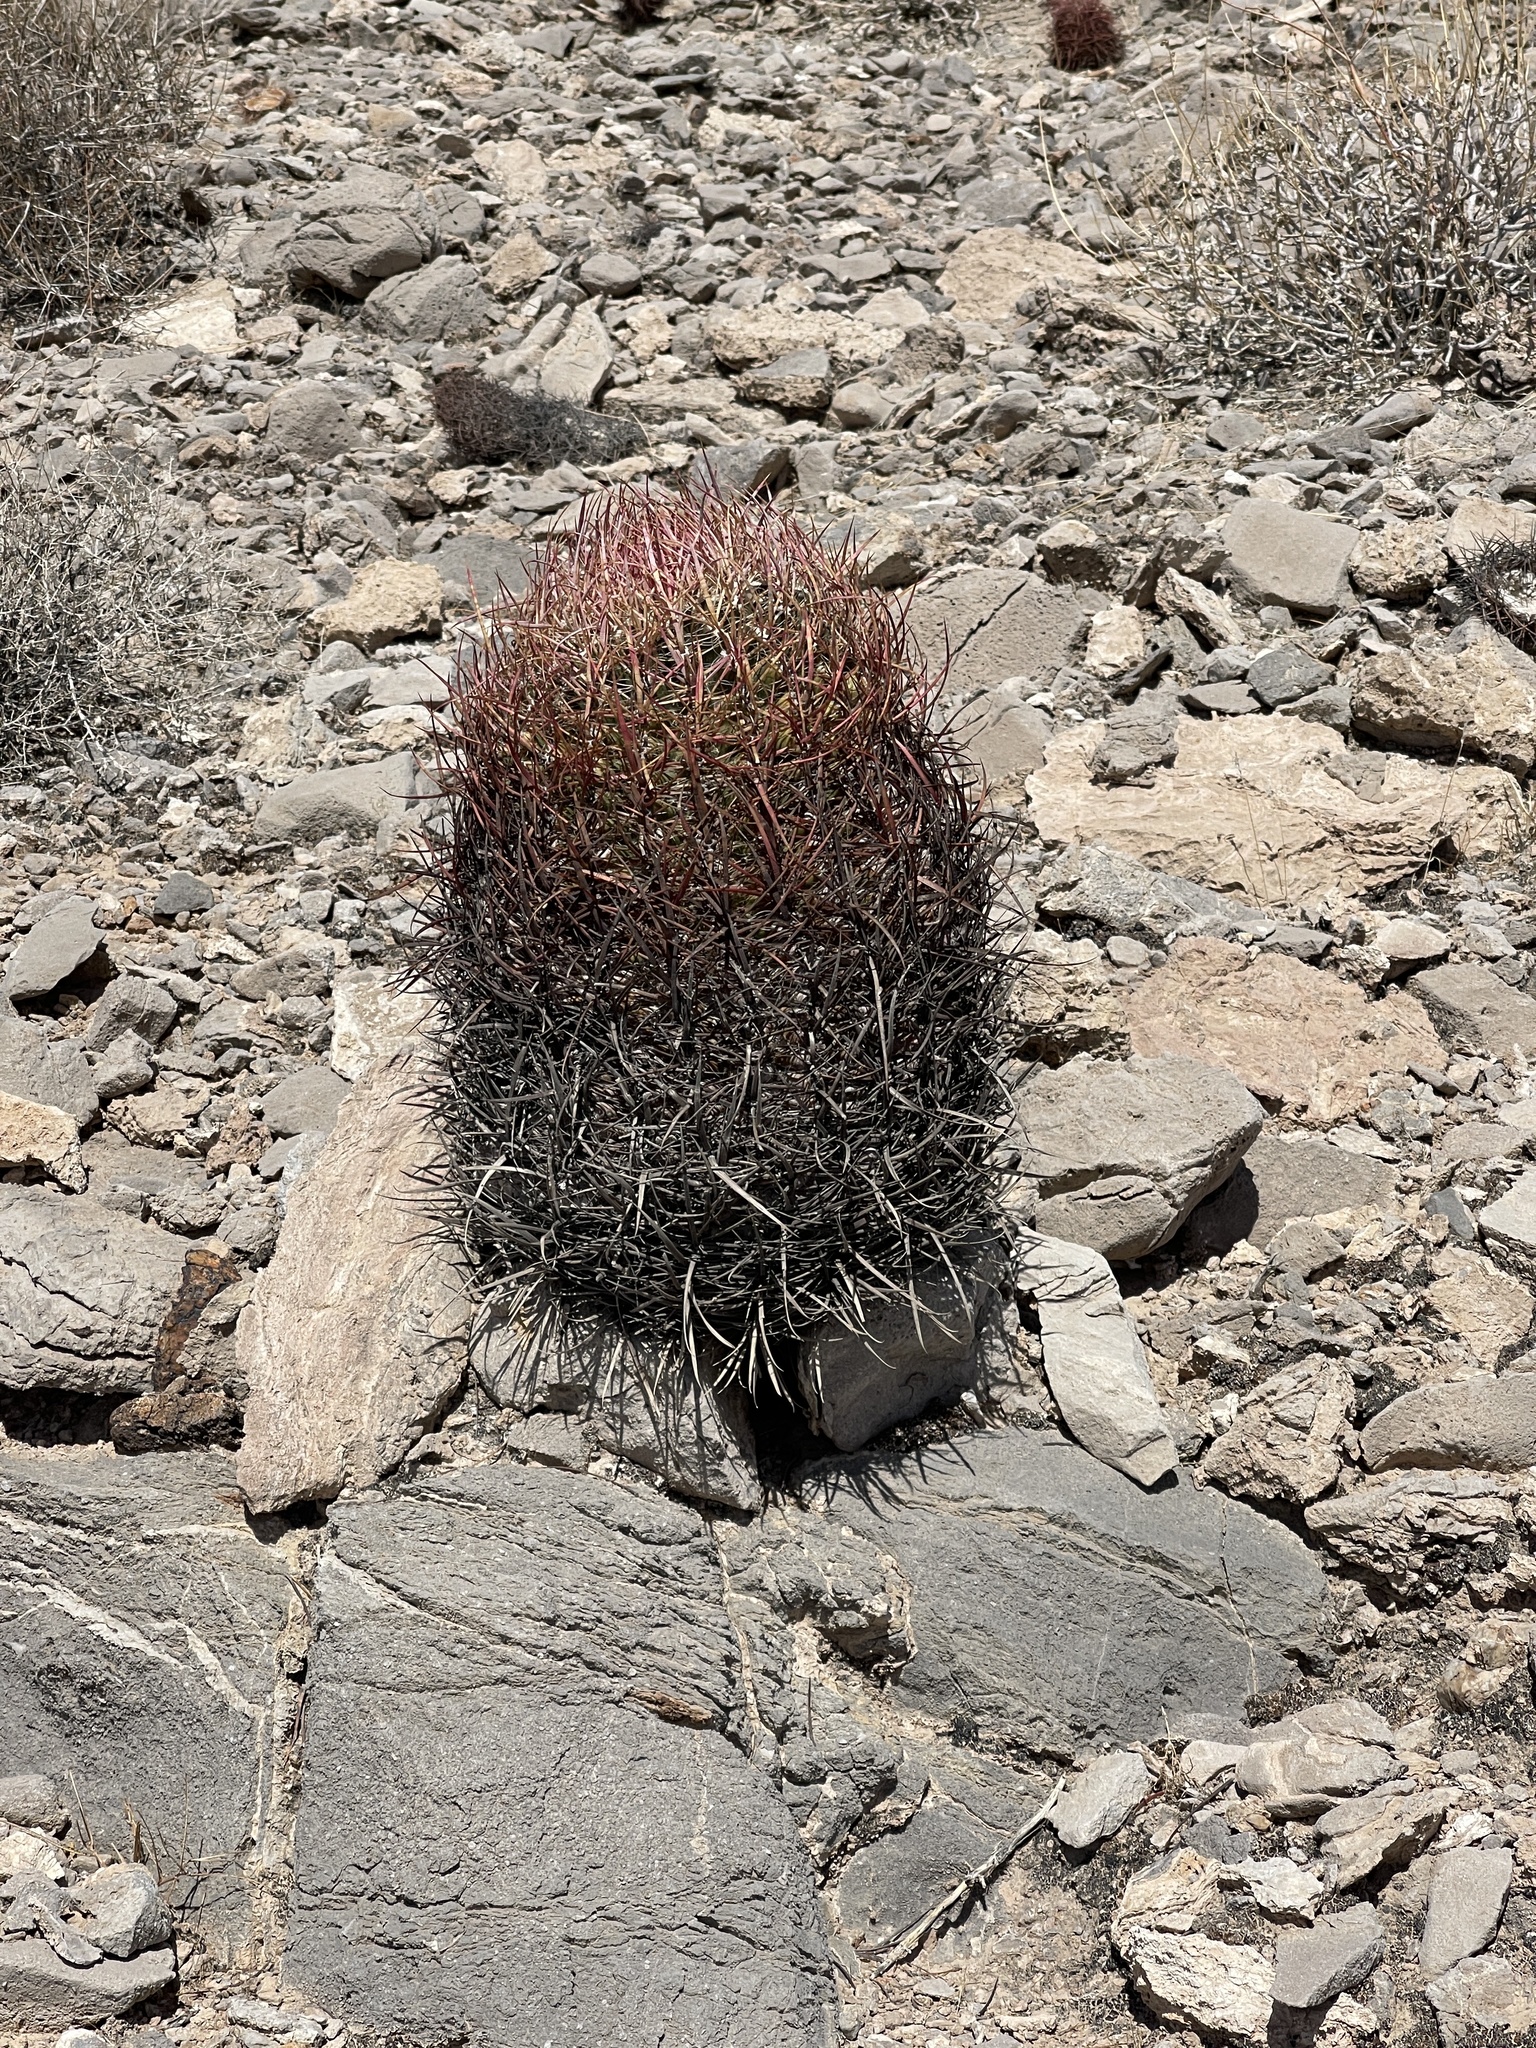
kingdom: Plantae
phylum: Tracheophyta
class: Magnoliopsida
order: Caryophyllales
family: Cactaceae
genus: Ferocactus
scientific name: Ferocactus cylindraceus
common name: California barrel cactus
